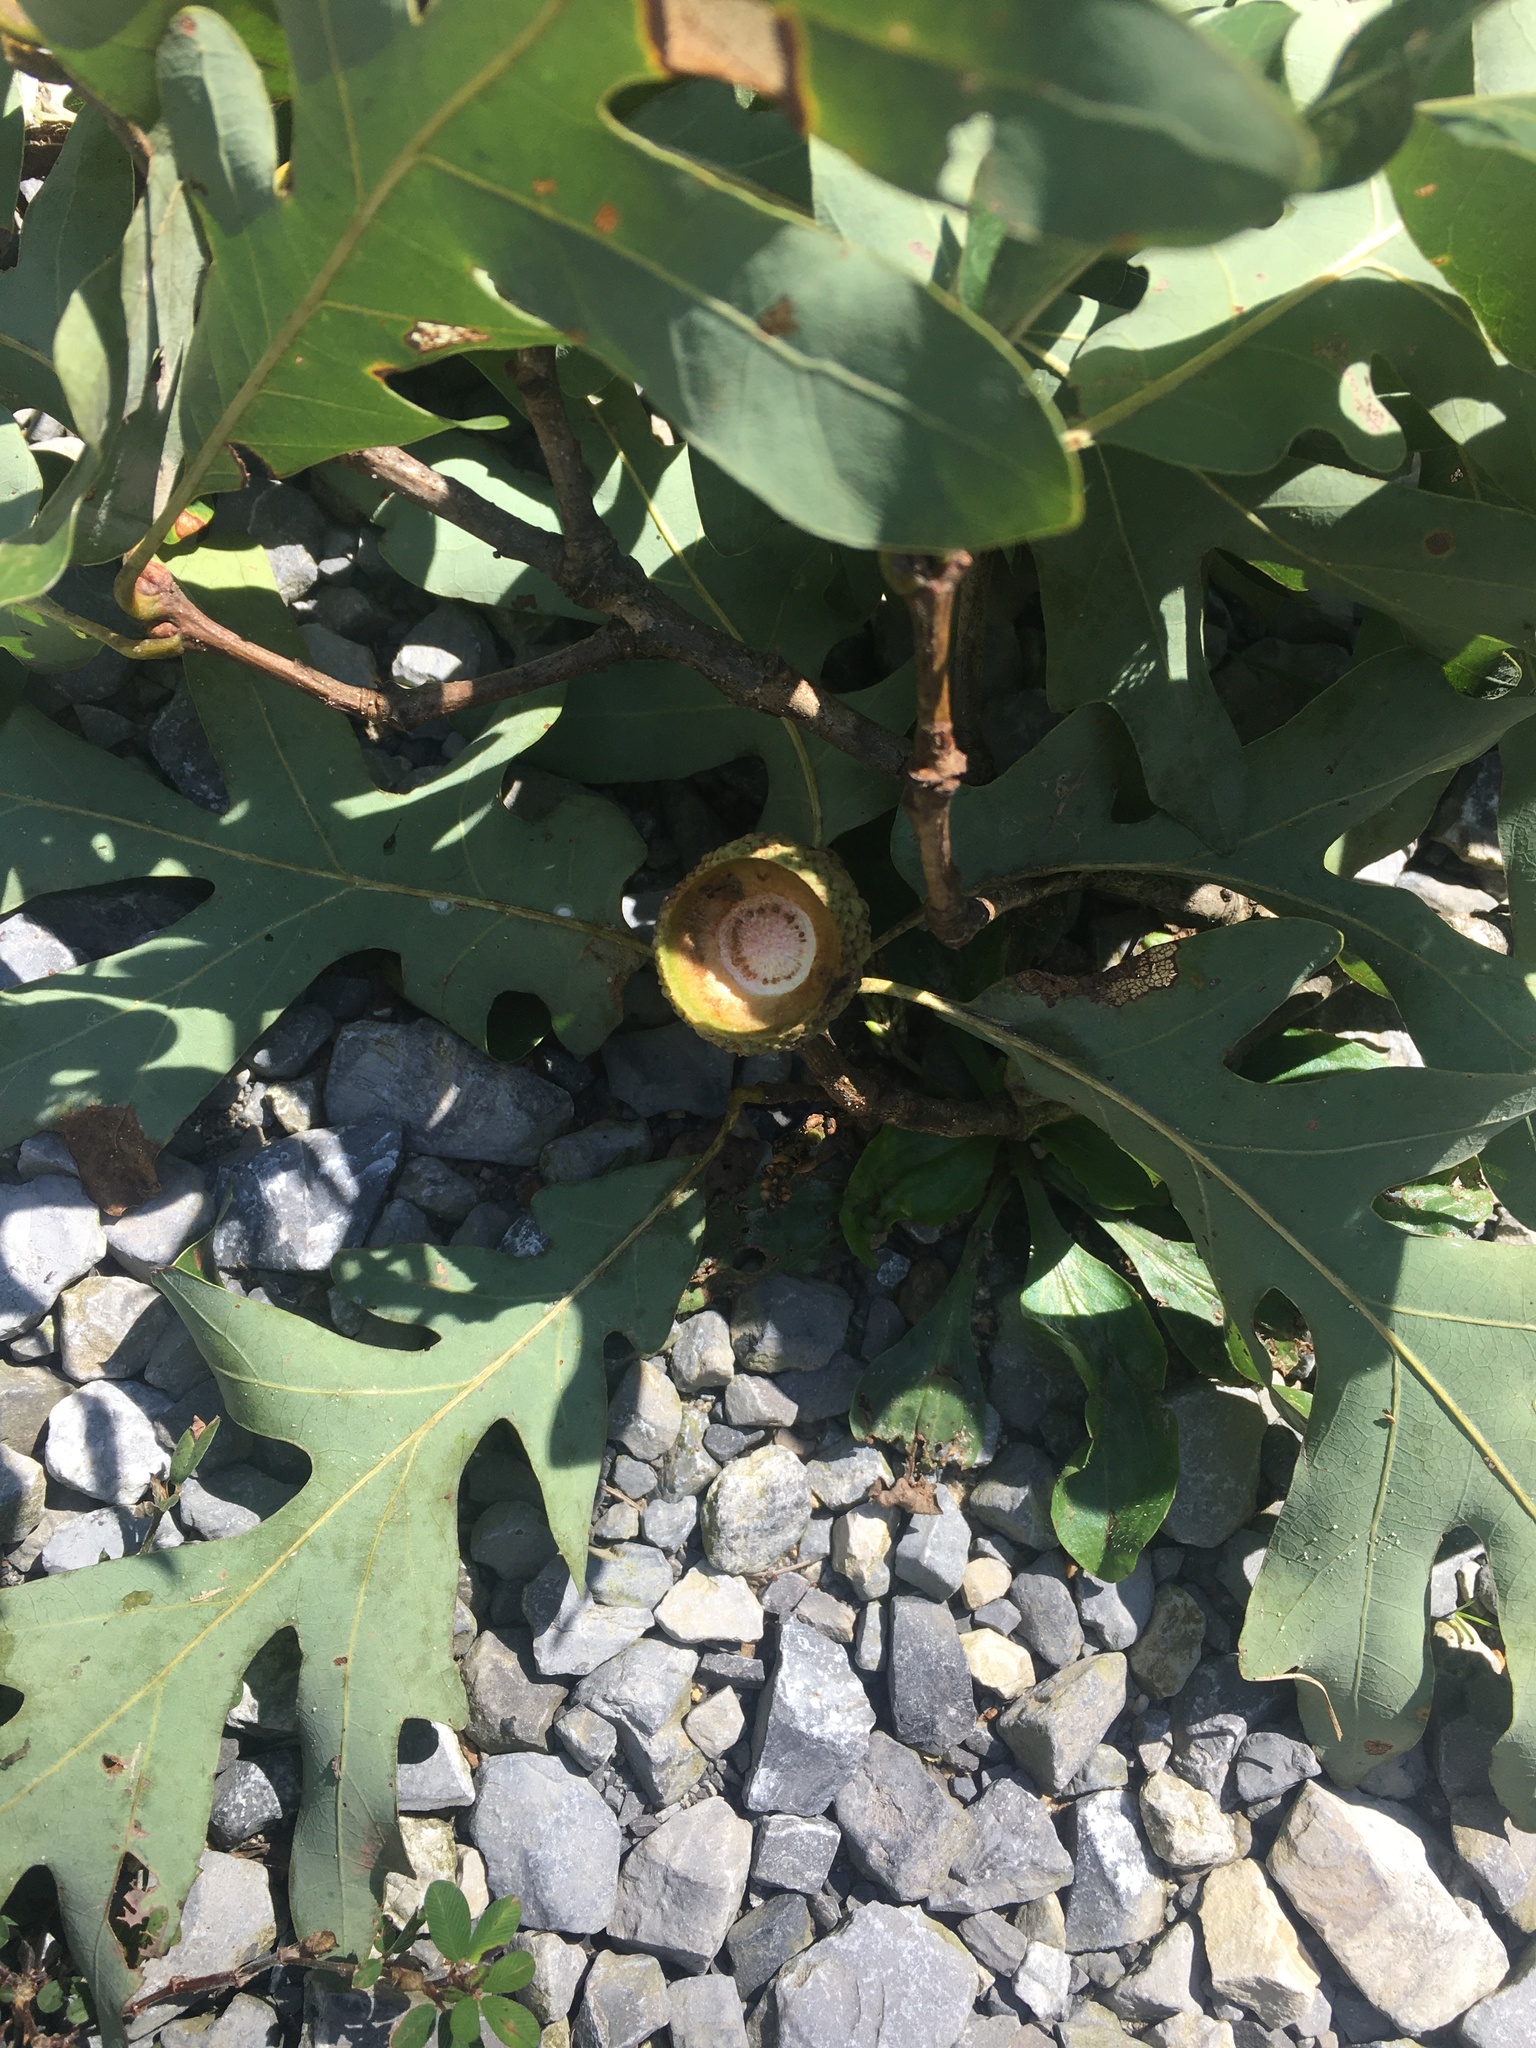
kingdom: Plantae
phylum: Tracheophyta
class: Magnoliopsida
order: Fagales
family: Fagaceae
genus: Quercus
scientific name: Quercus alba
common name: White oak
